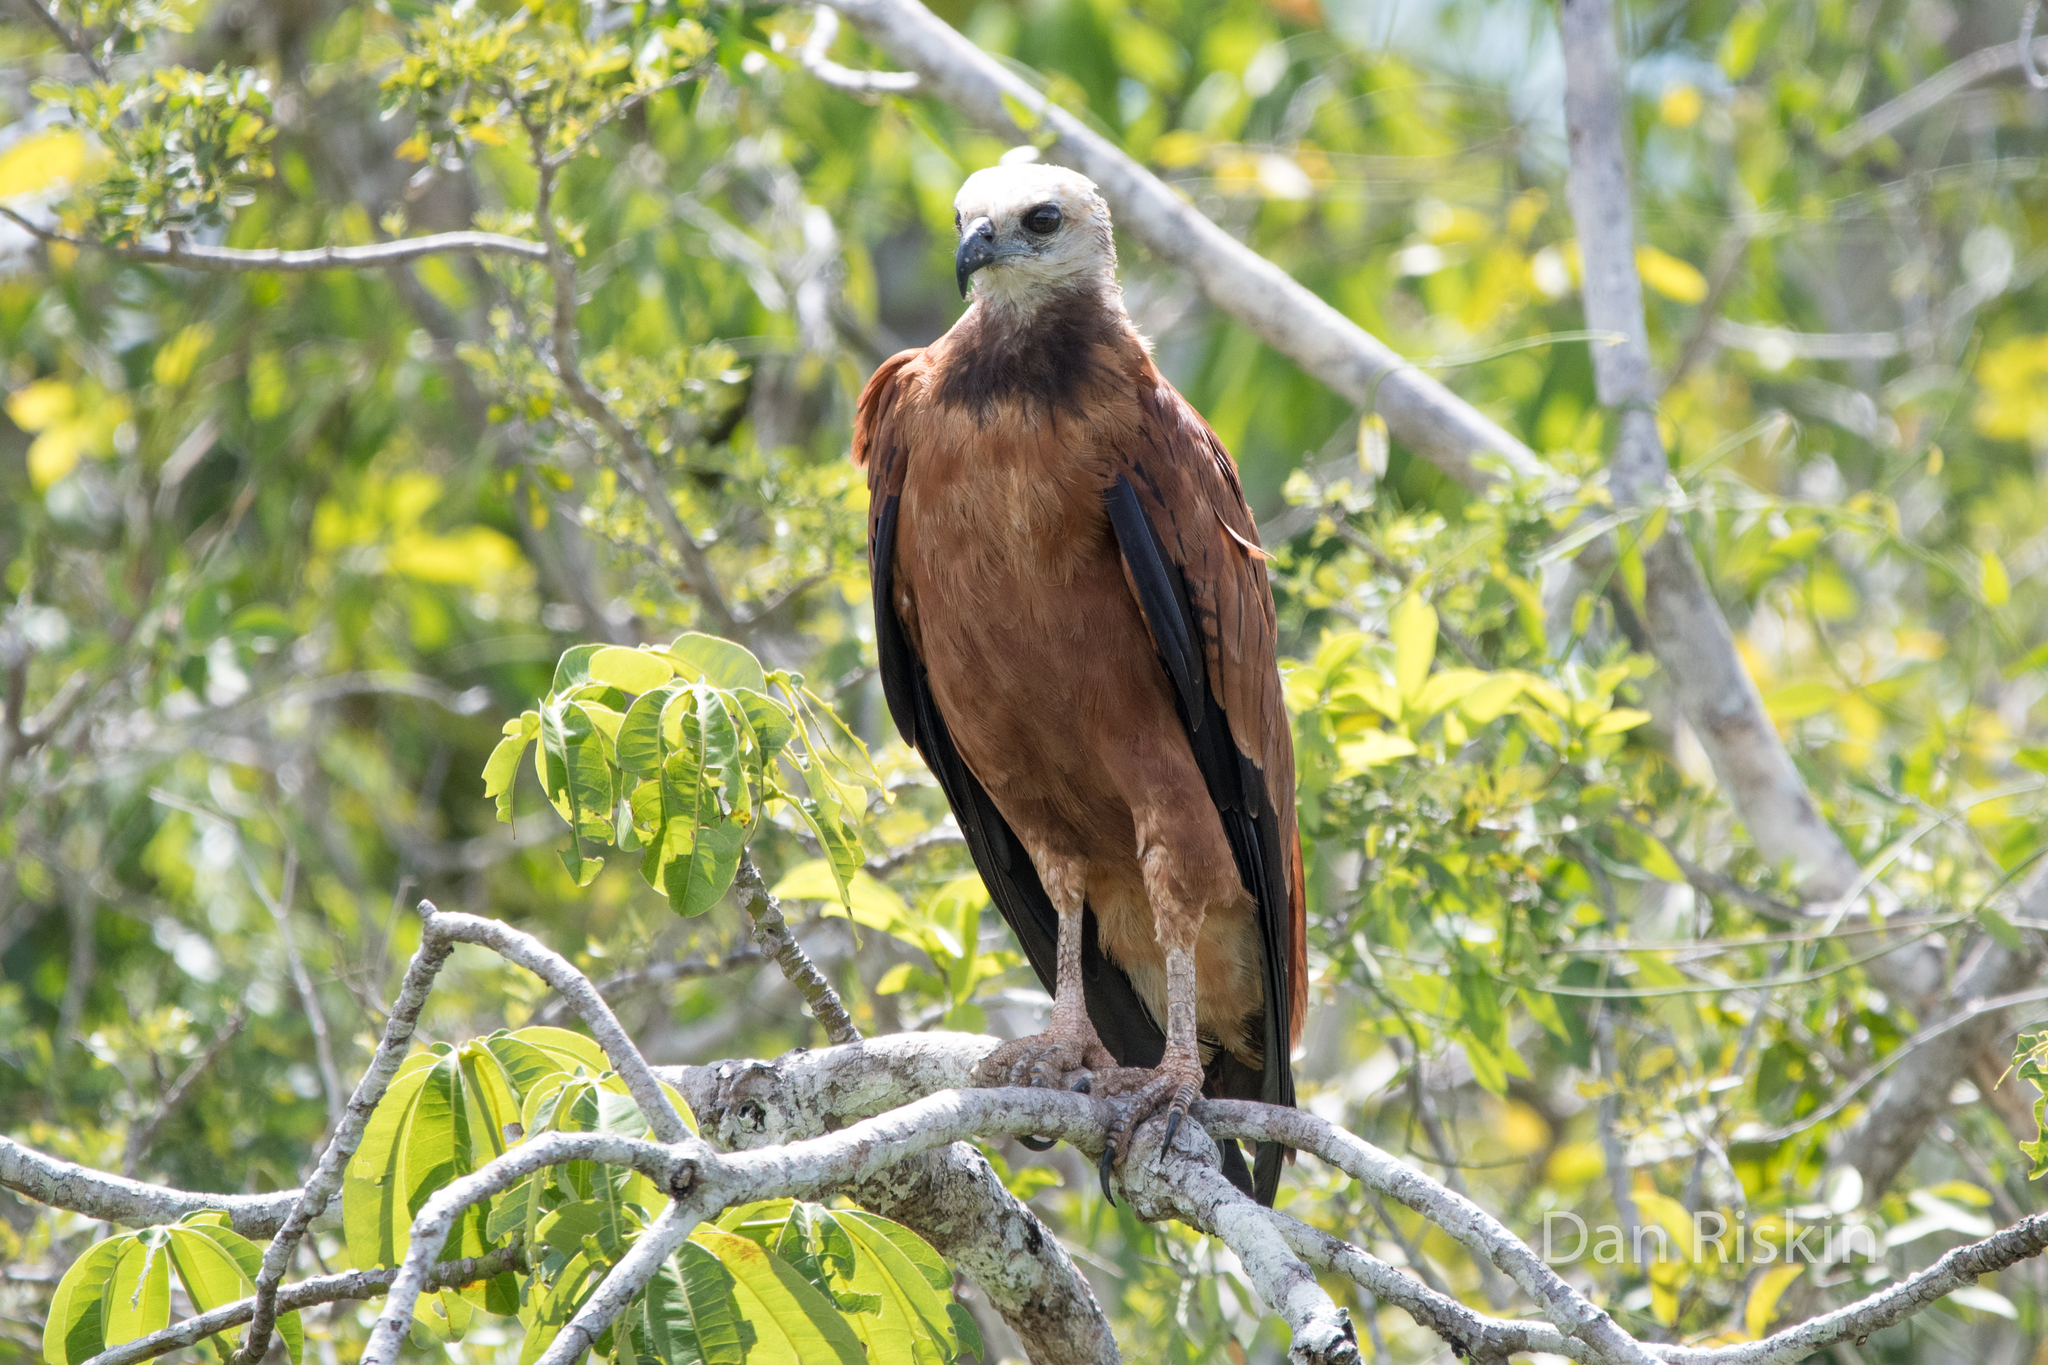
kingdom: Animalia
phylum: Chordata
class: Aves
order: Accipitriformes
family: Accipitridae
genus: Busarellus
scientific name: Busarellus nigricollis
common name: Black-collared hawk
